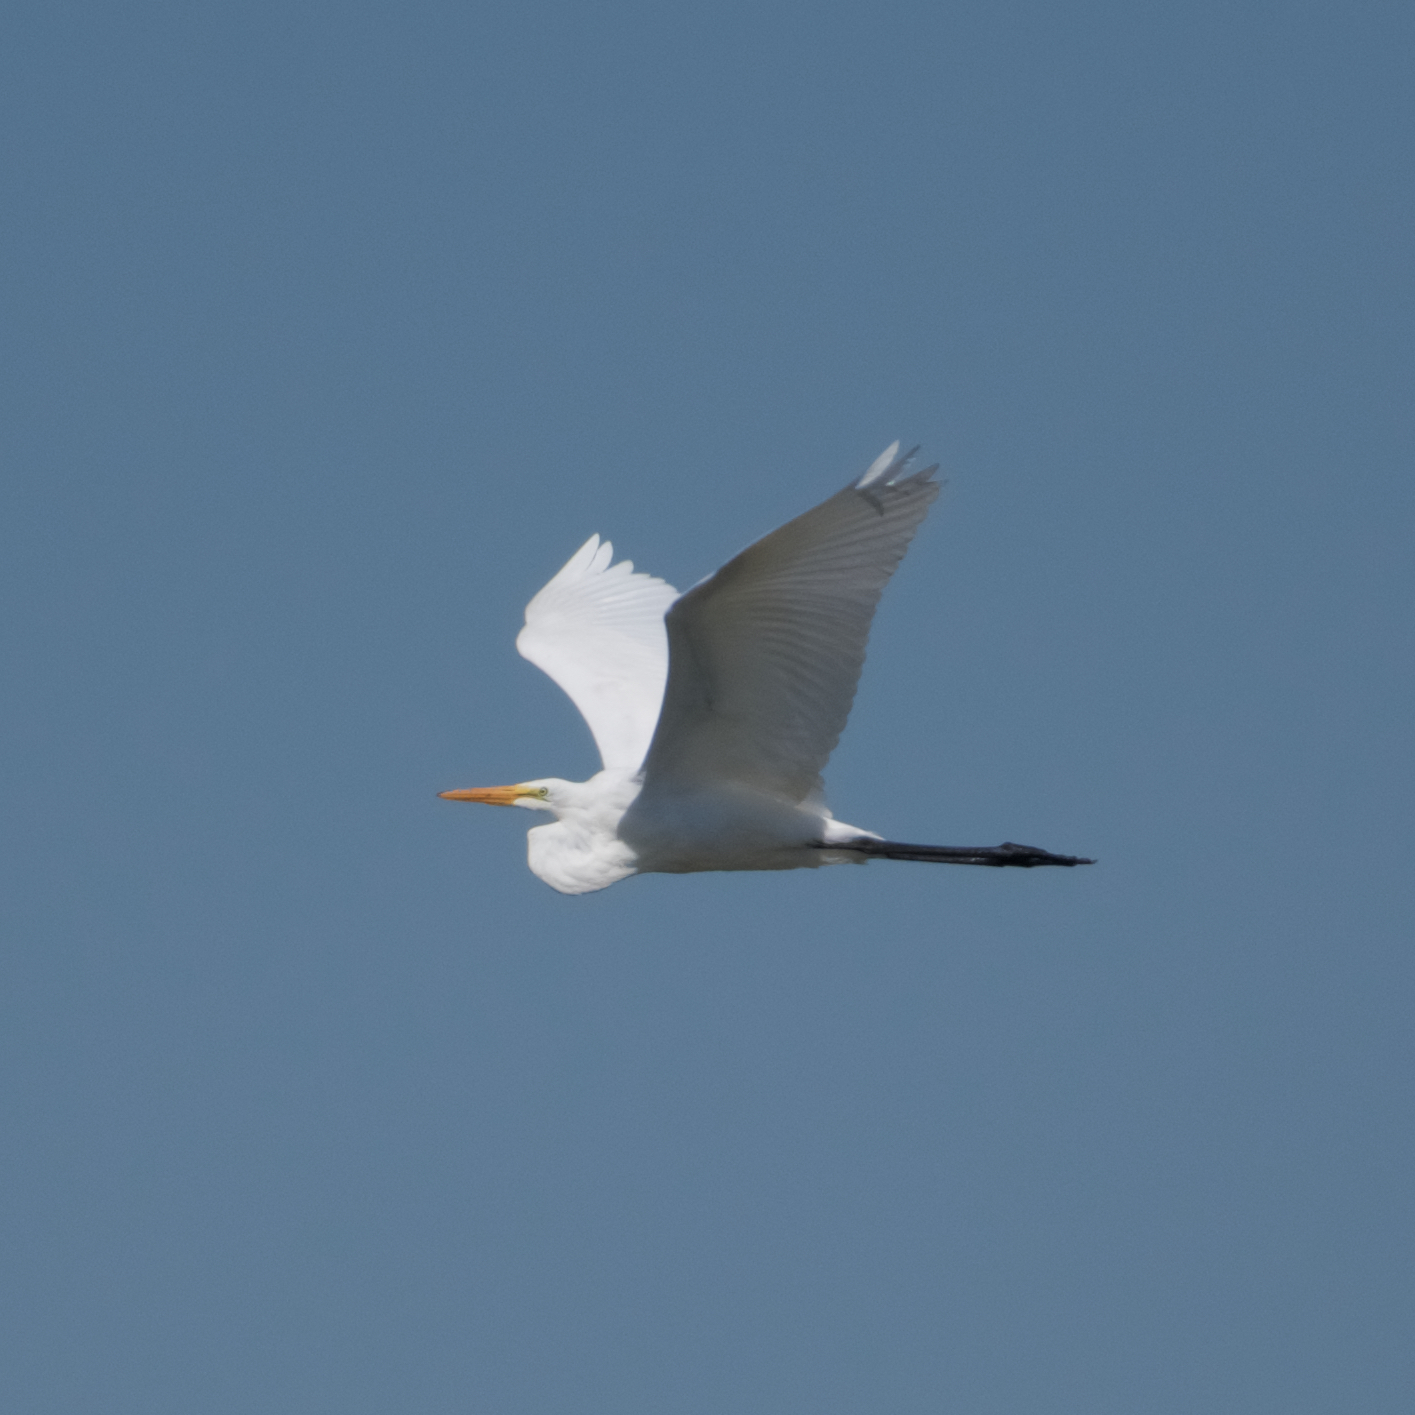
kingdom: Animalia
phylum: Chordata
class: Aves
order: Pelecaniformes
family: Ardeidae
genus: Ardea
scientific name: Ardea alba
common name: Great egret
